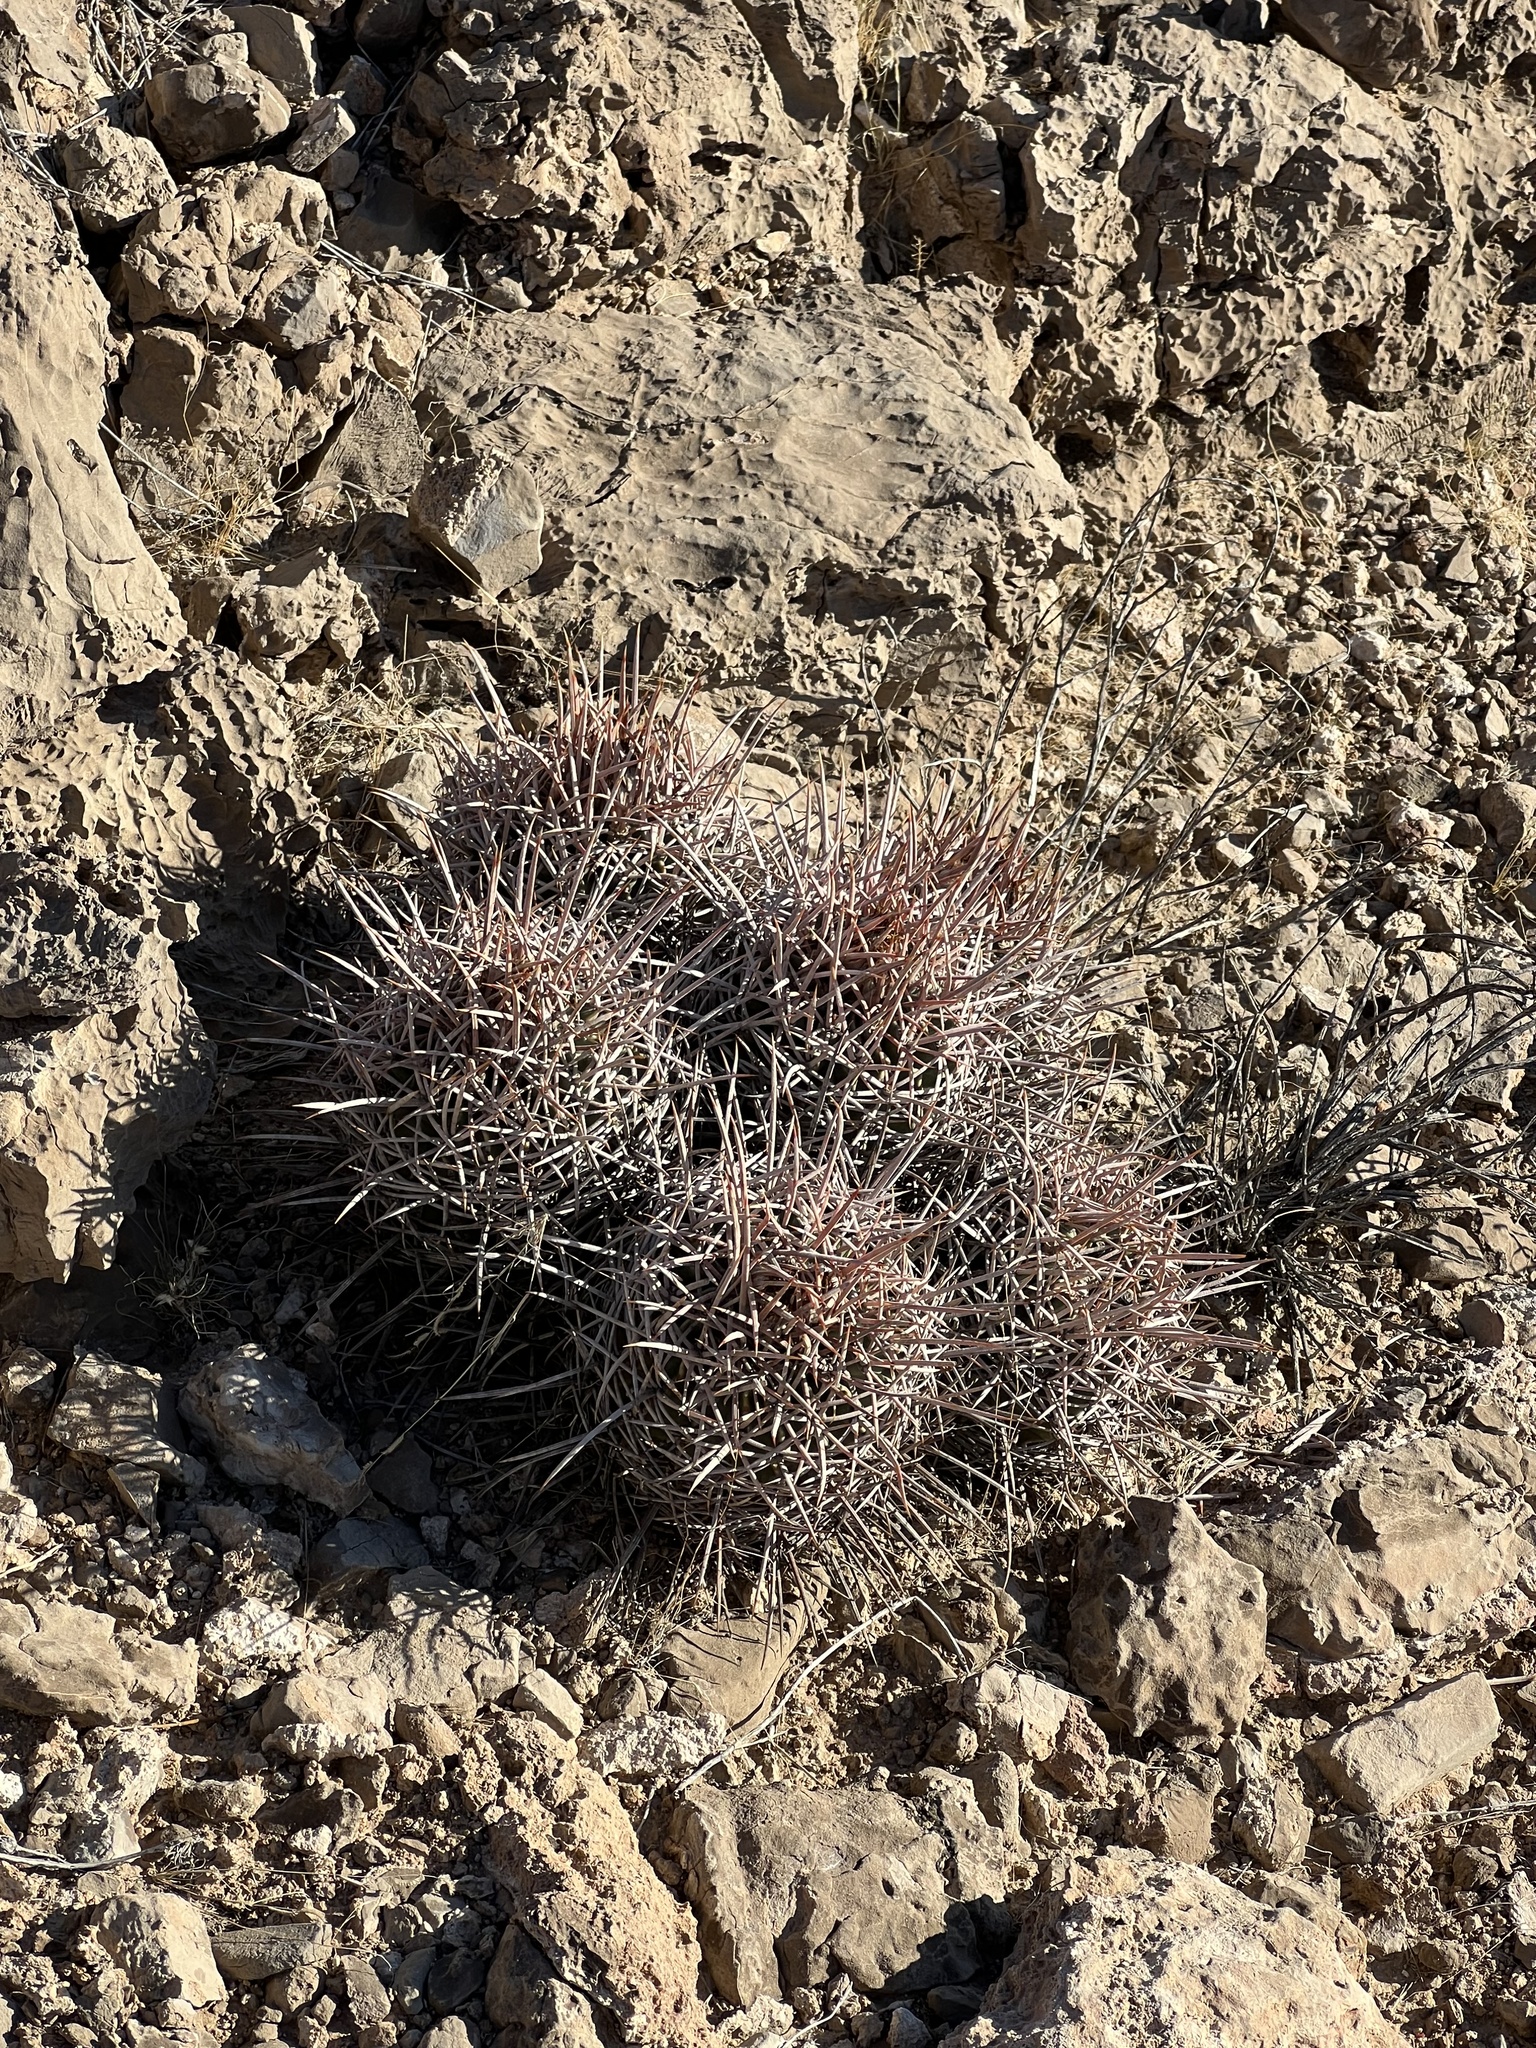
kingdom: Plantae
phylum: Tracheophyta
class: Magnoliopsida
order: Caryophyllales
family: Cactaceae
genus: Echinocactus
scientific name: Echinocactus polycephalus
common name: Cottontop cactus
